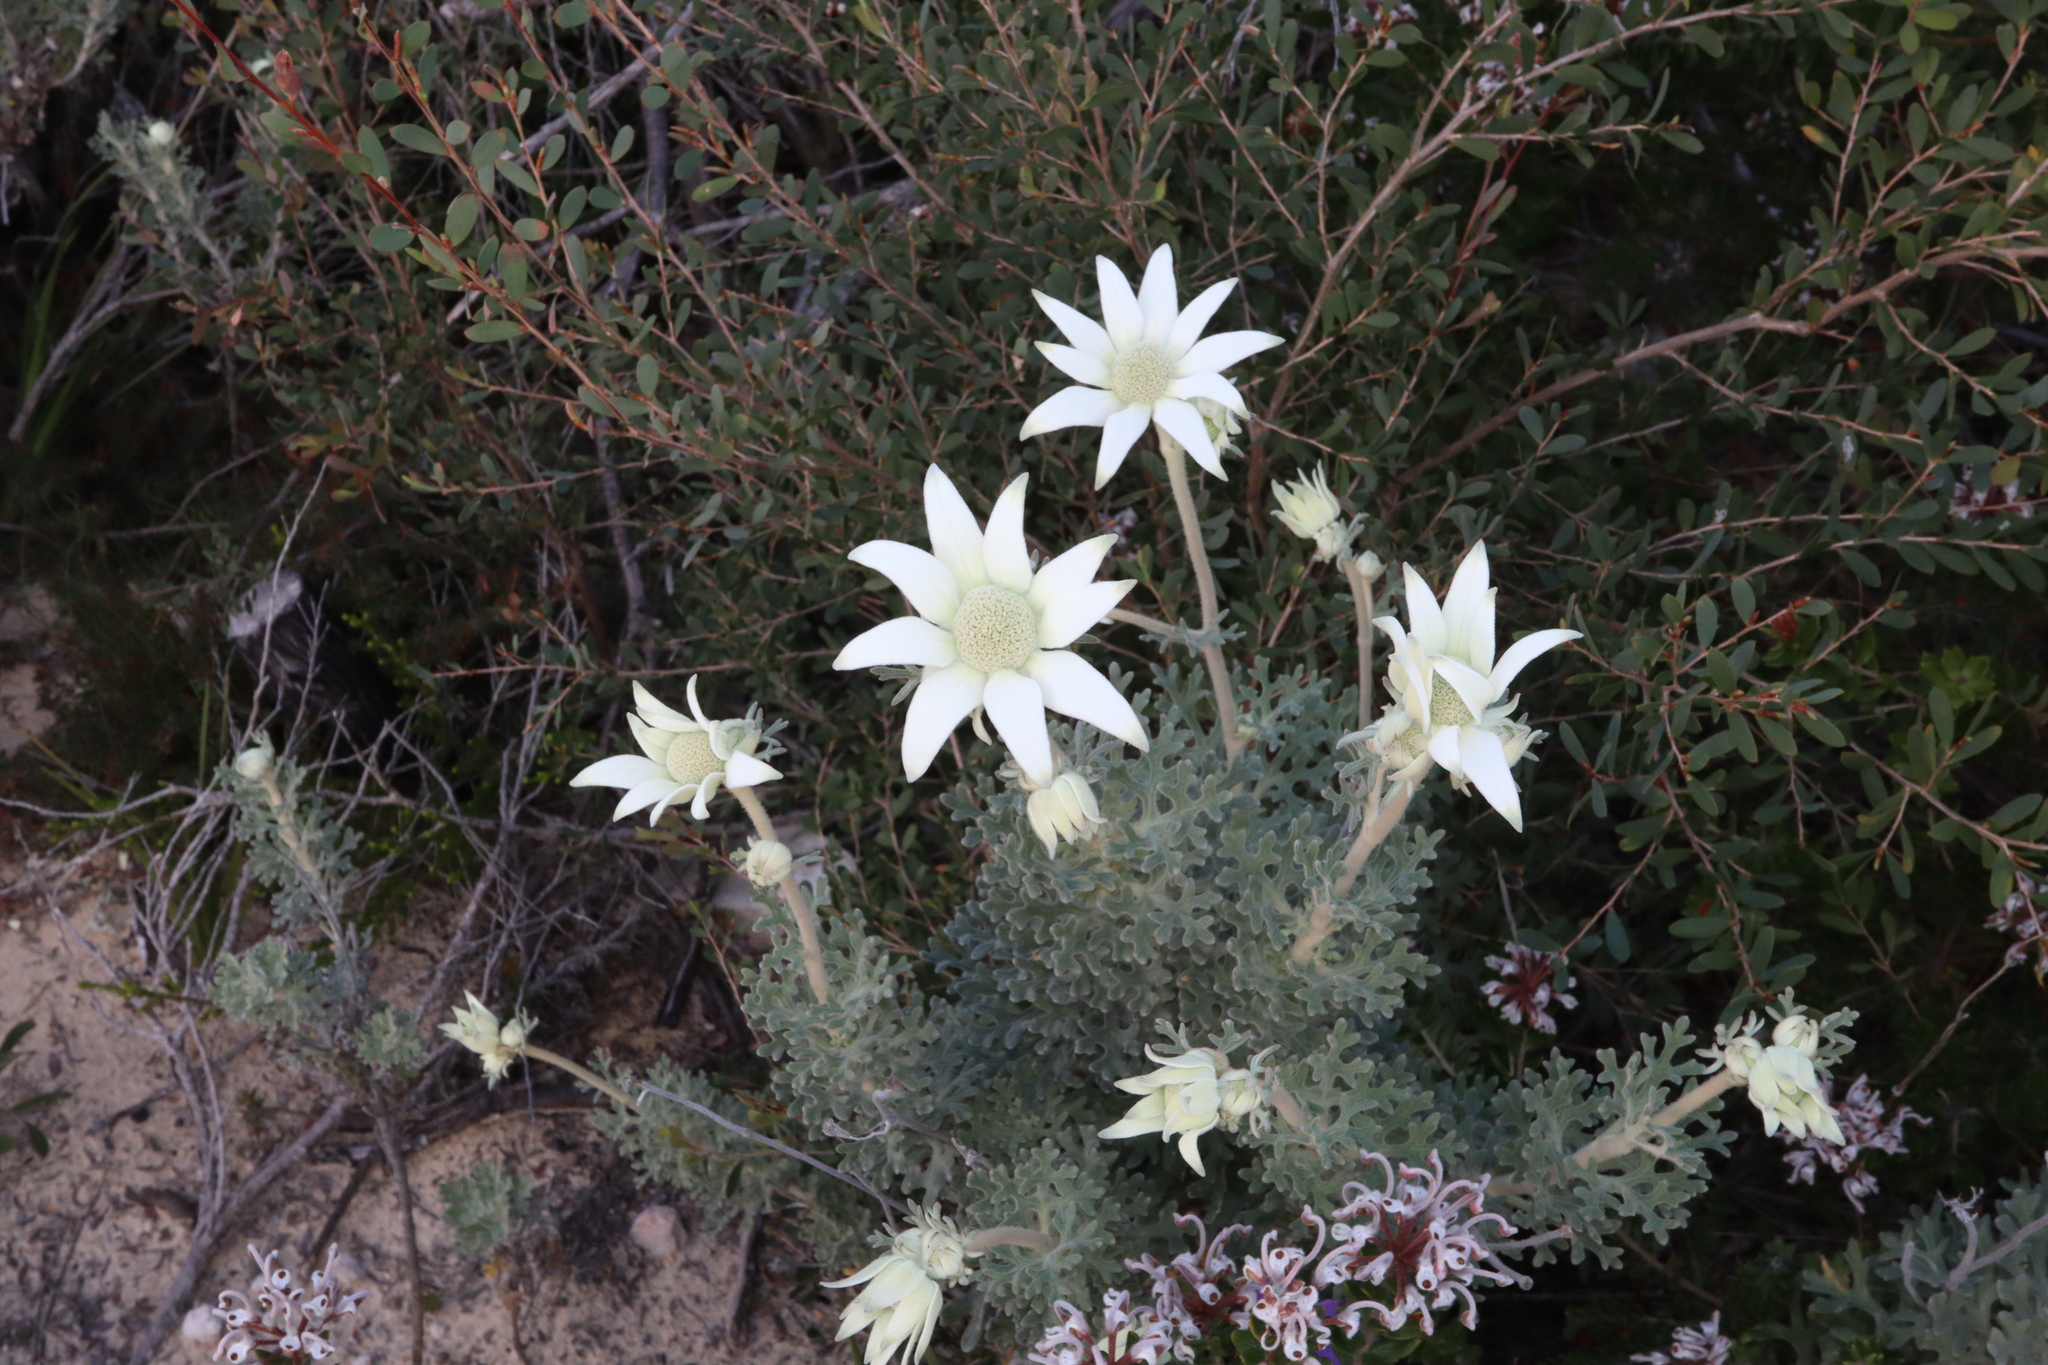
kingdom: Plantae
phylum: Tracheophyta
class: Magnoliopsida
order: Apiales
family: Apiaceae
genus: Actinotus
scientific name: Actinotus helianthi
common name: Flannel-flower
